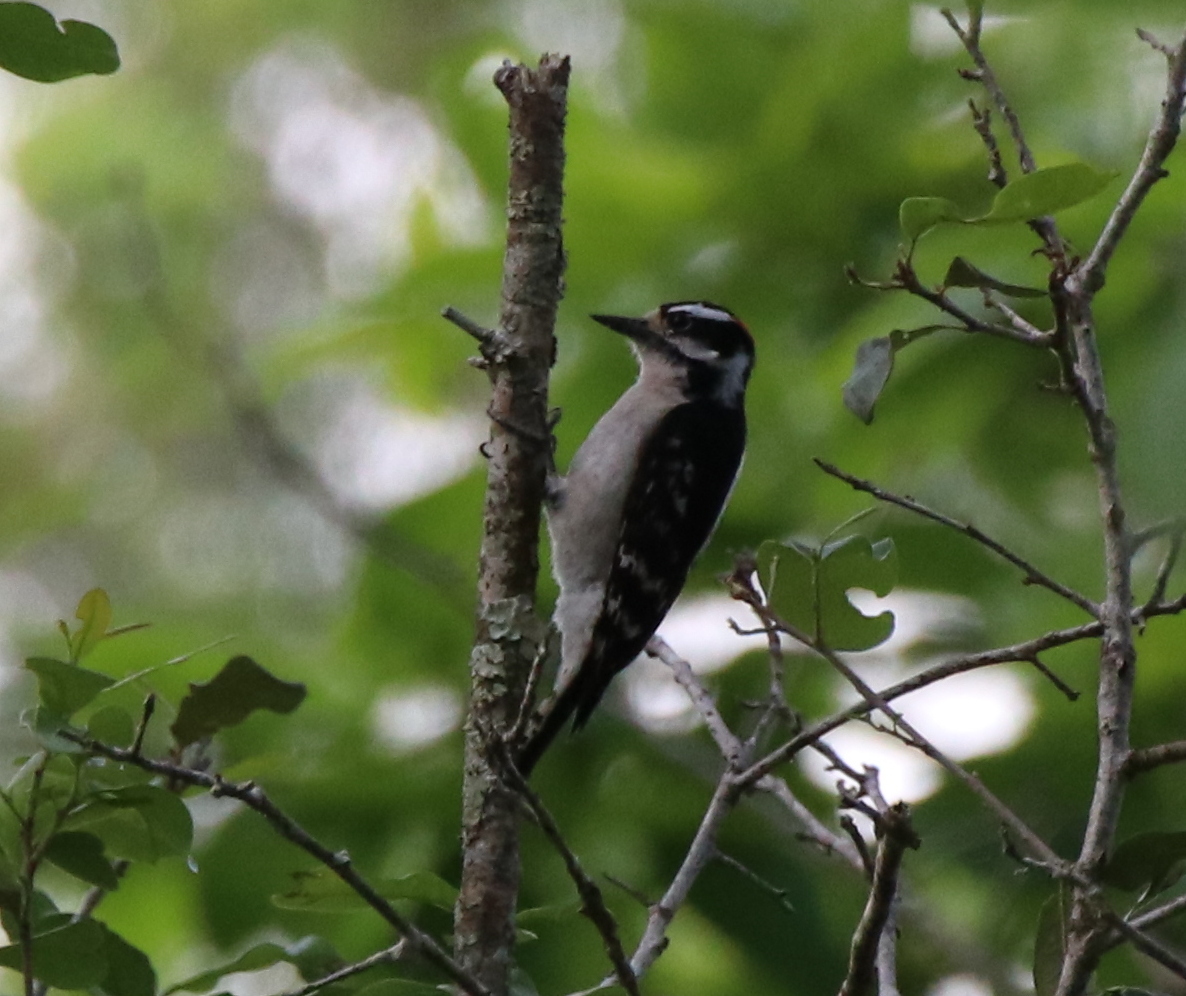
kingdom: Animalia
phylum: Chordata
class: Aves
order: Piciformes
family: Picidae
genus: Dryobates
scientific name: Dryobates pubescens
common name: Downy woodpecker
